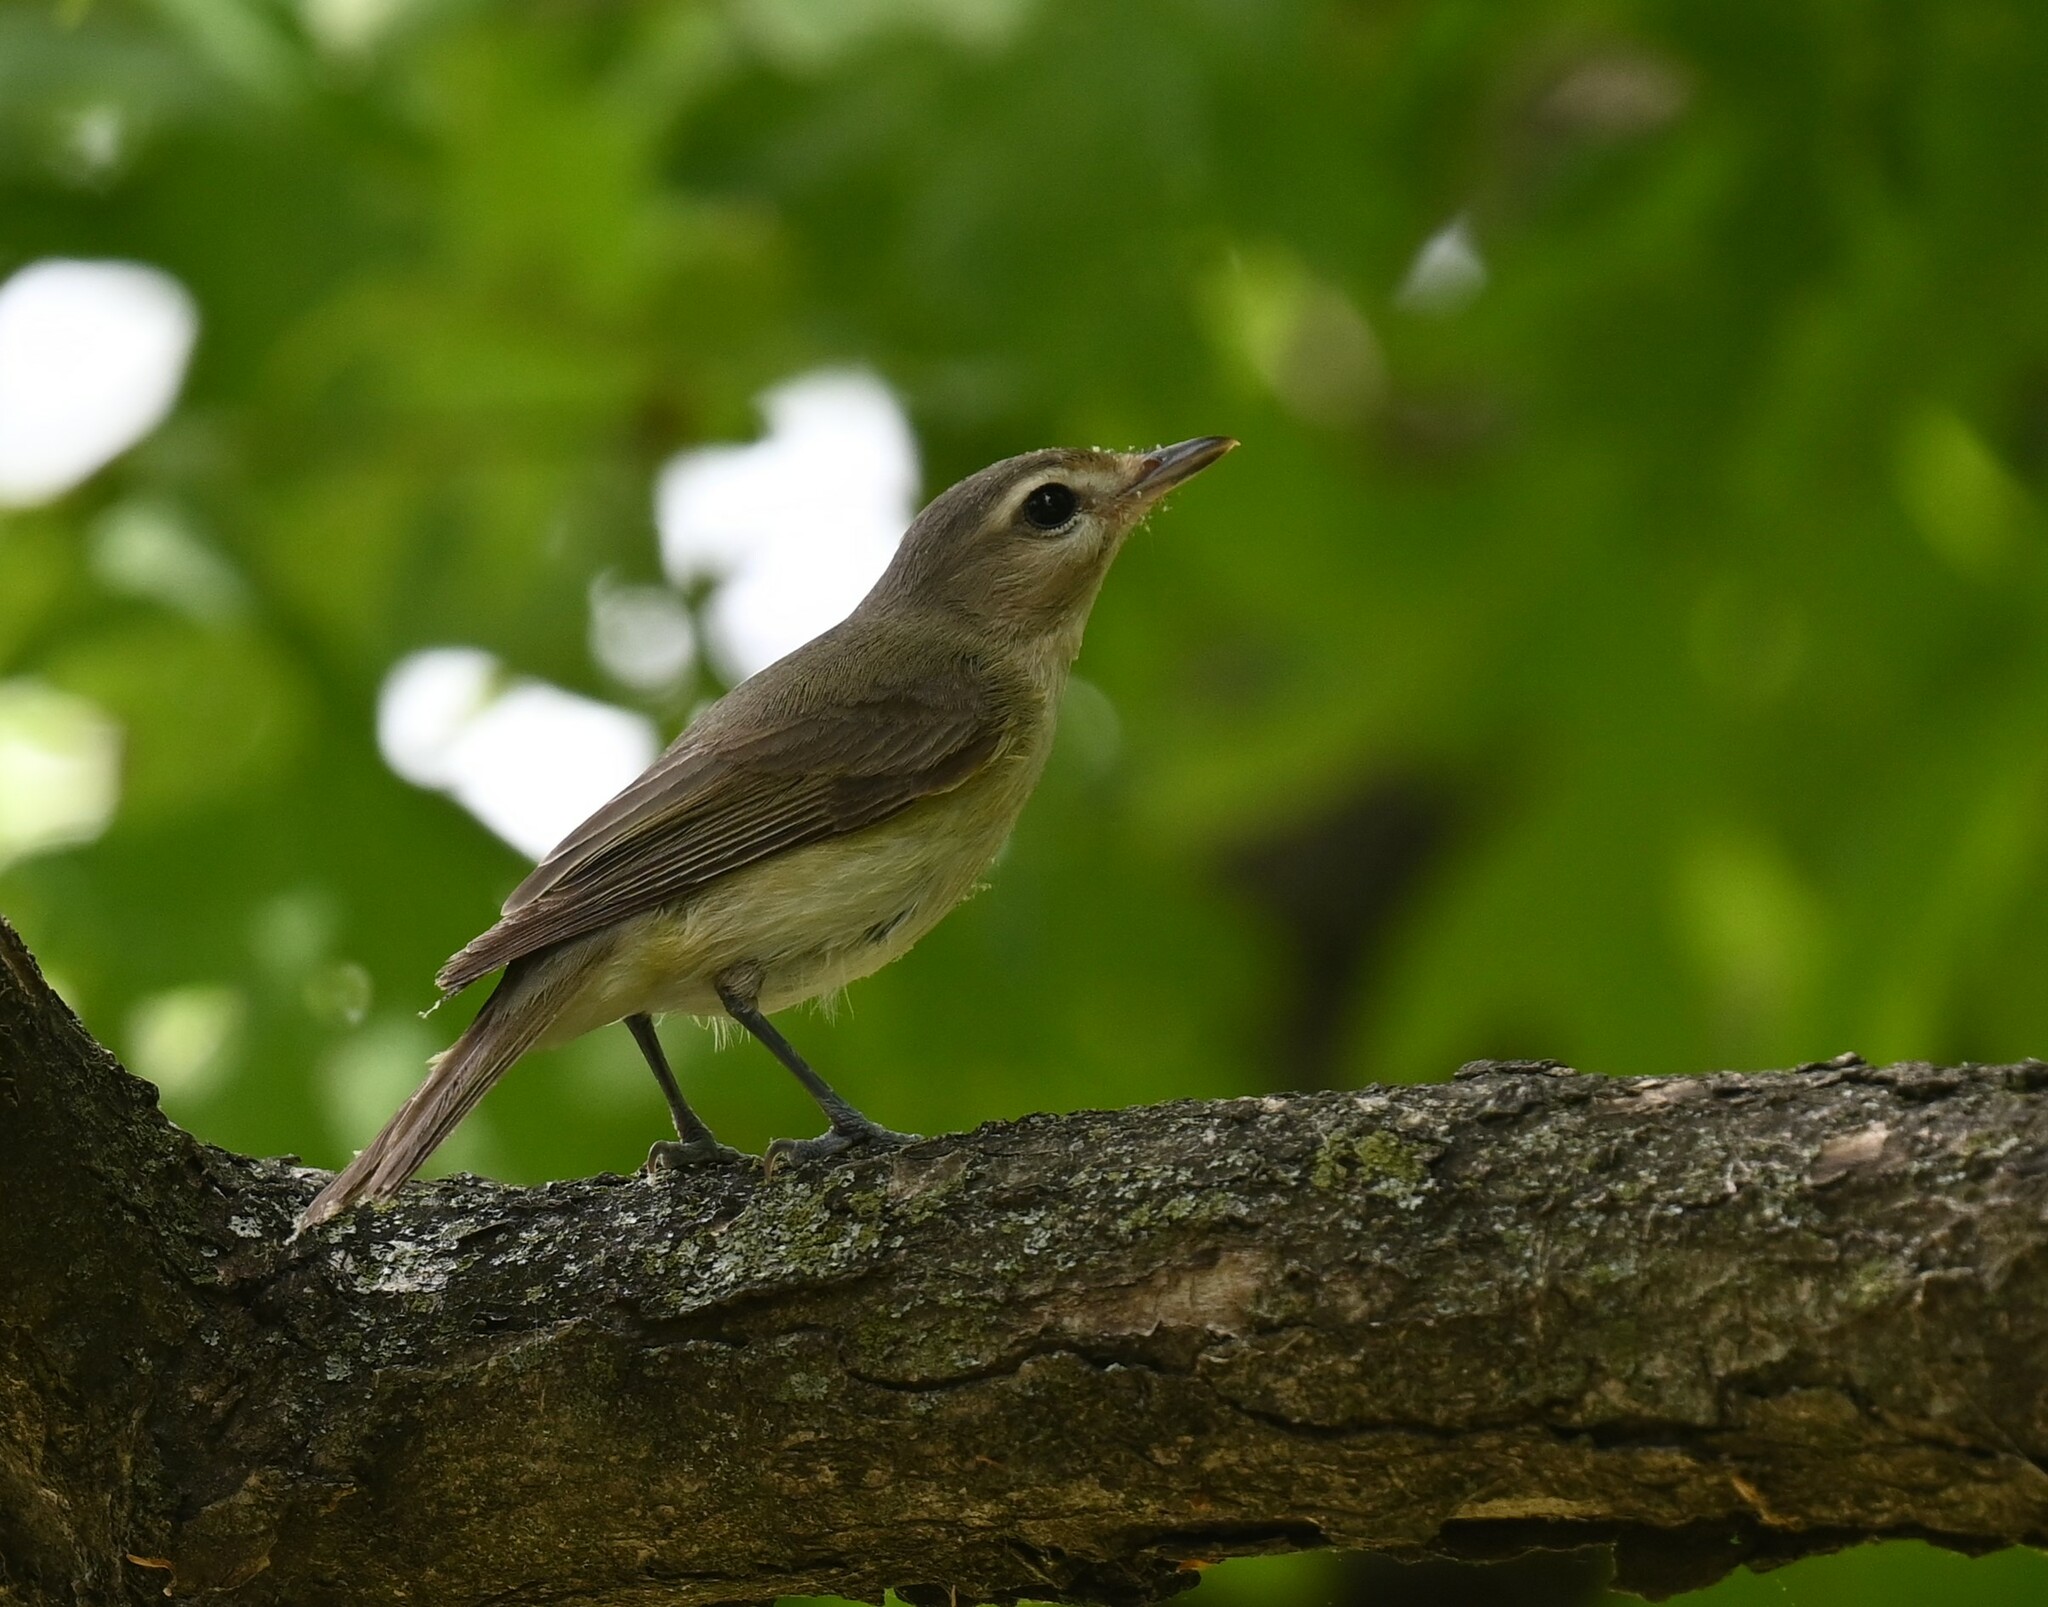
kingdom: Animalia
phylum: Chordata
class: Aves
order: Passeriformes
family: Vireonidae
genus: Vireo
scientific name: Vireo gilvus
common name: Warbling vireo
